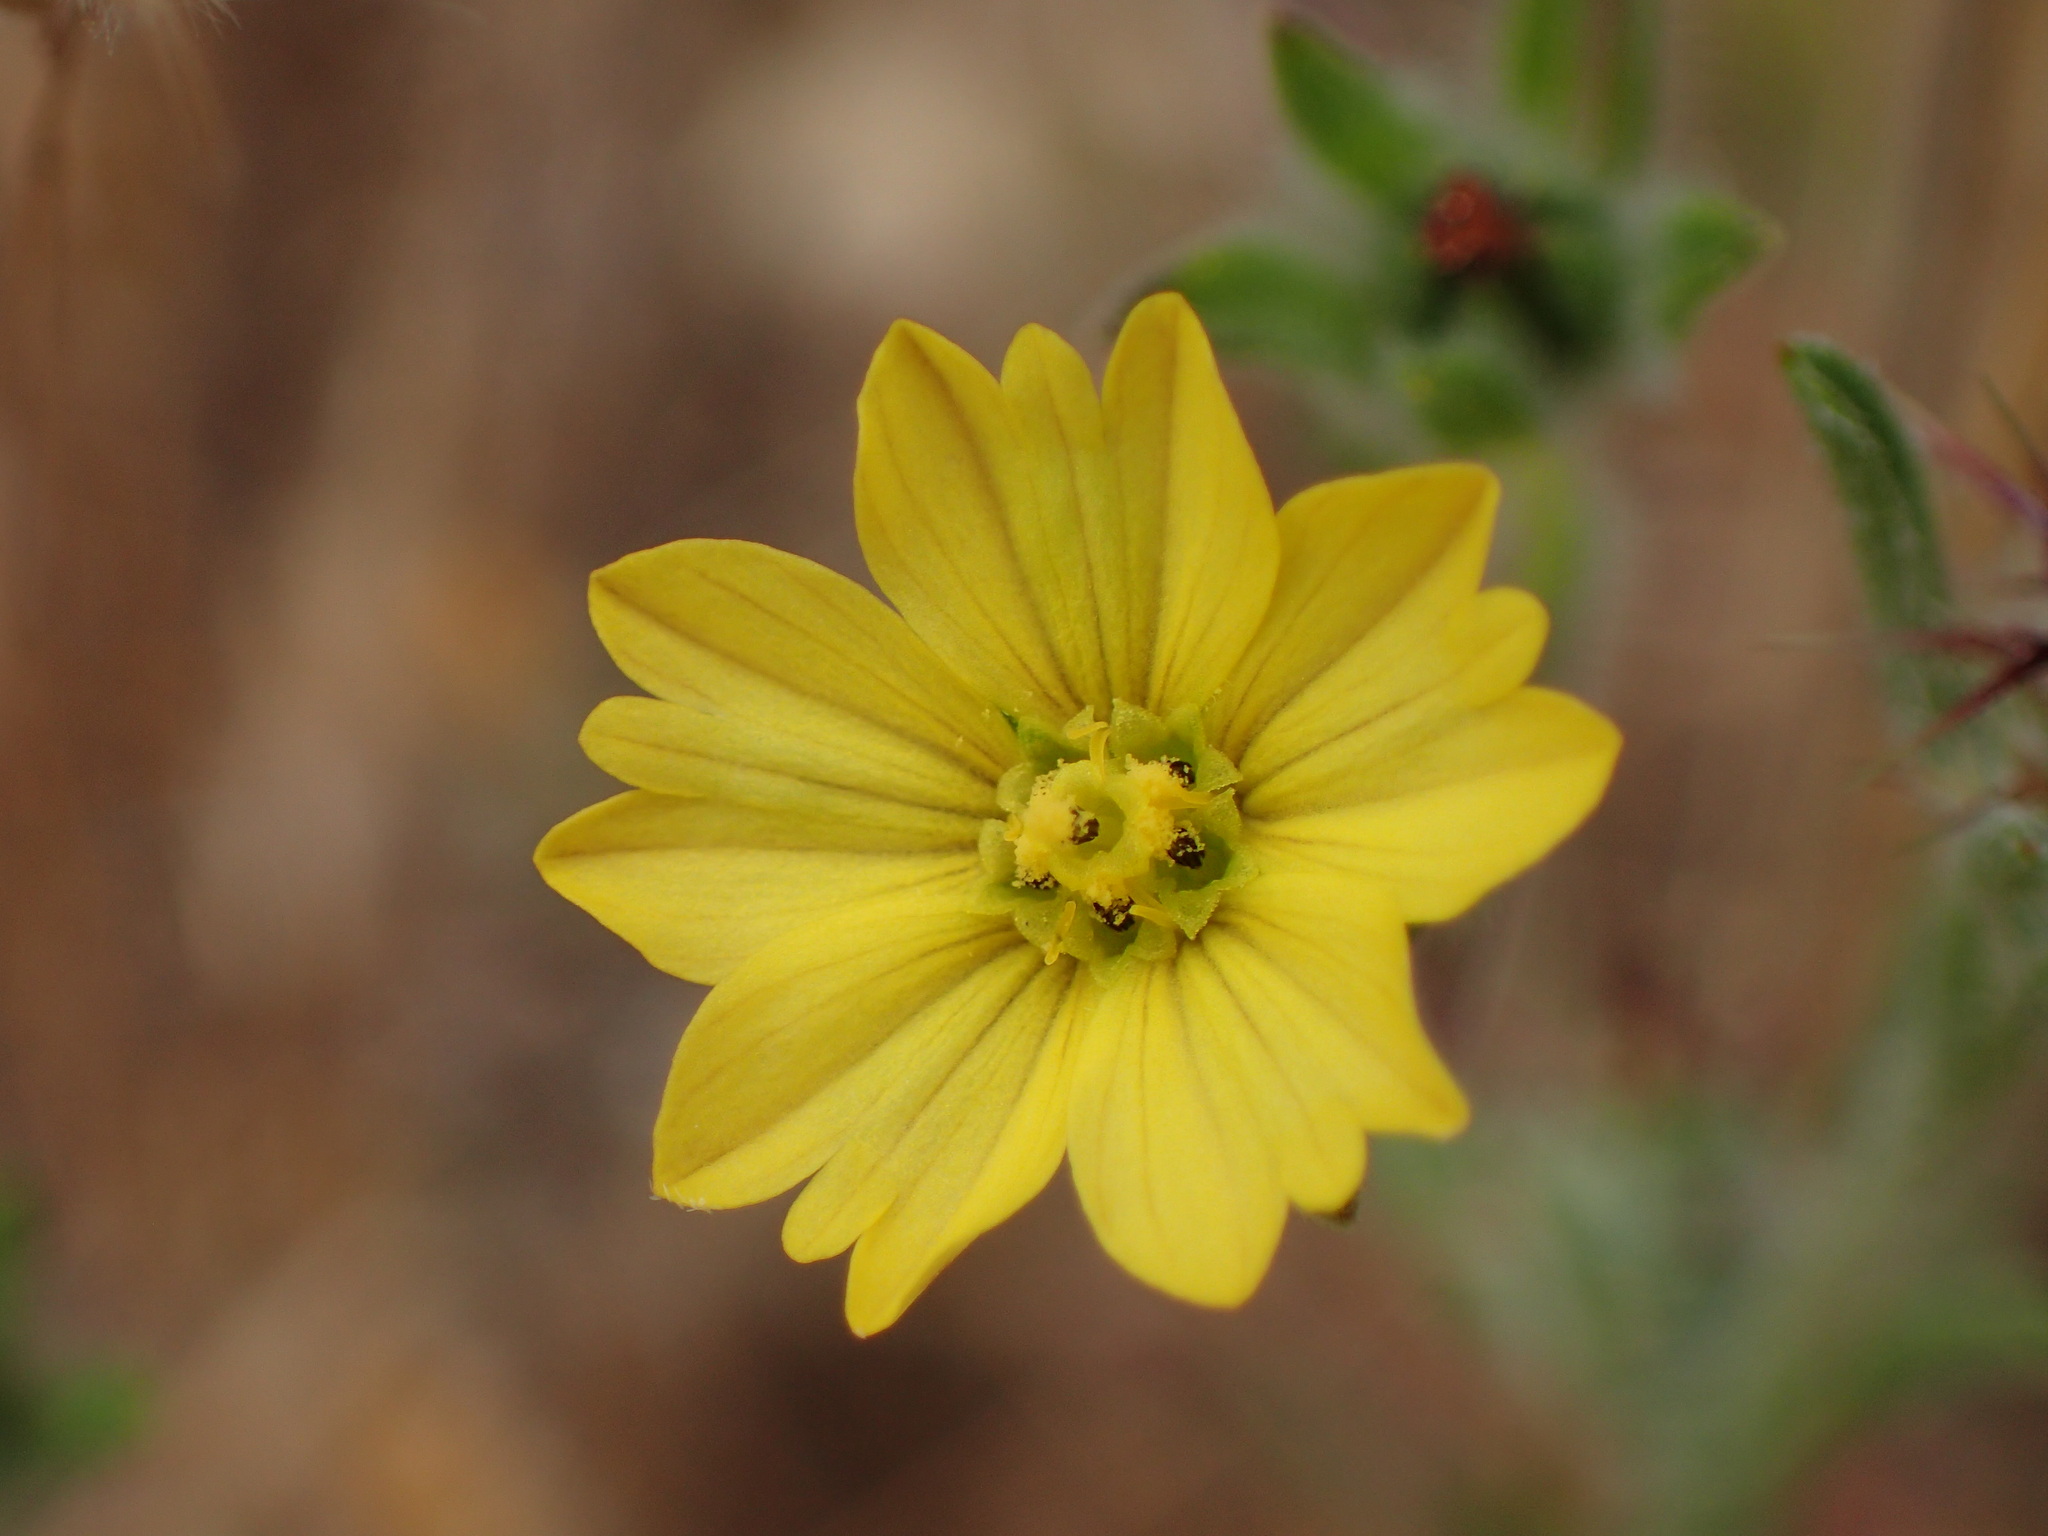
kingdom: Plantae
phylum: Tracheophyta
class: Magnoliopsida
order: Asterales
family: Asteraceae
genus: Lagophylla
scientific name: Lagophylla ramosissima
